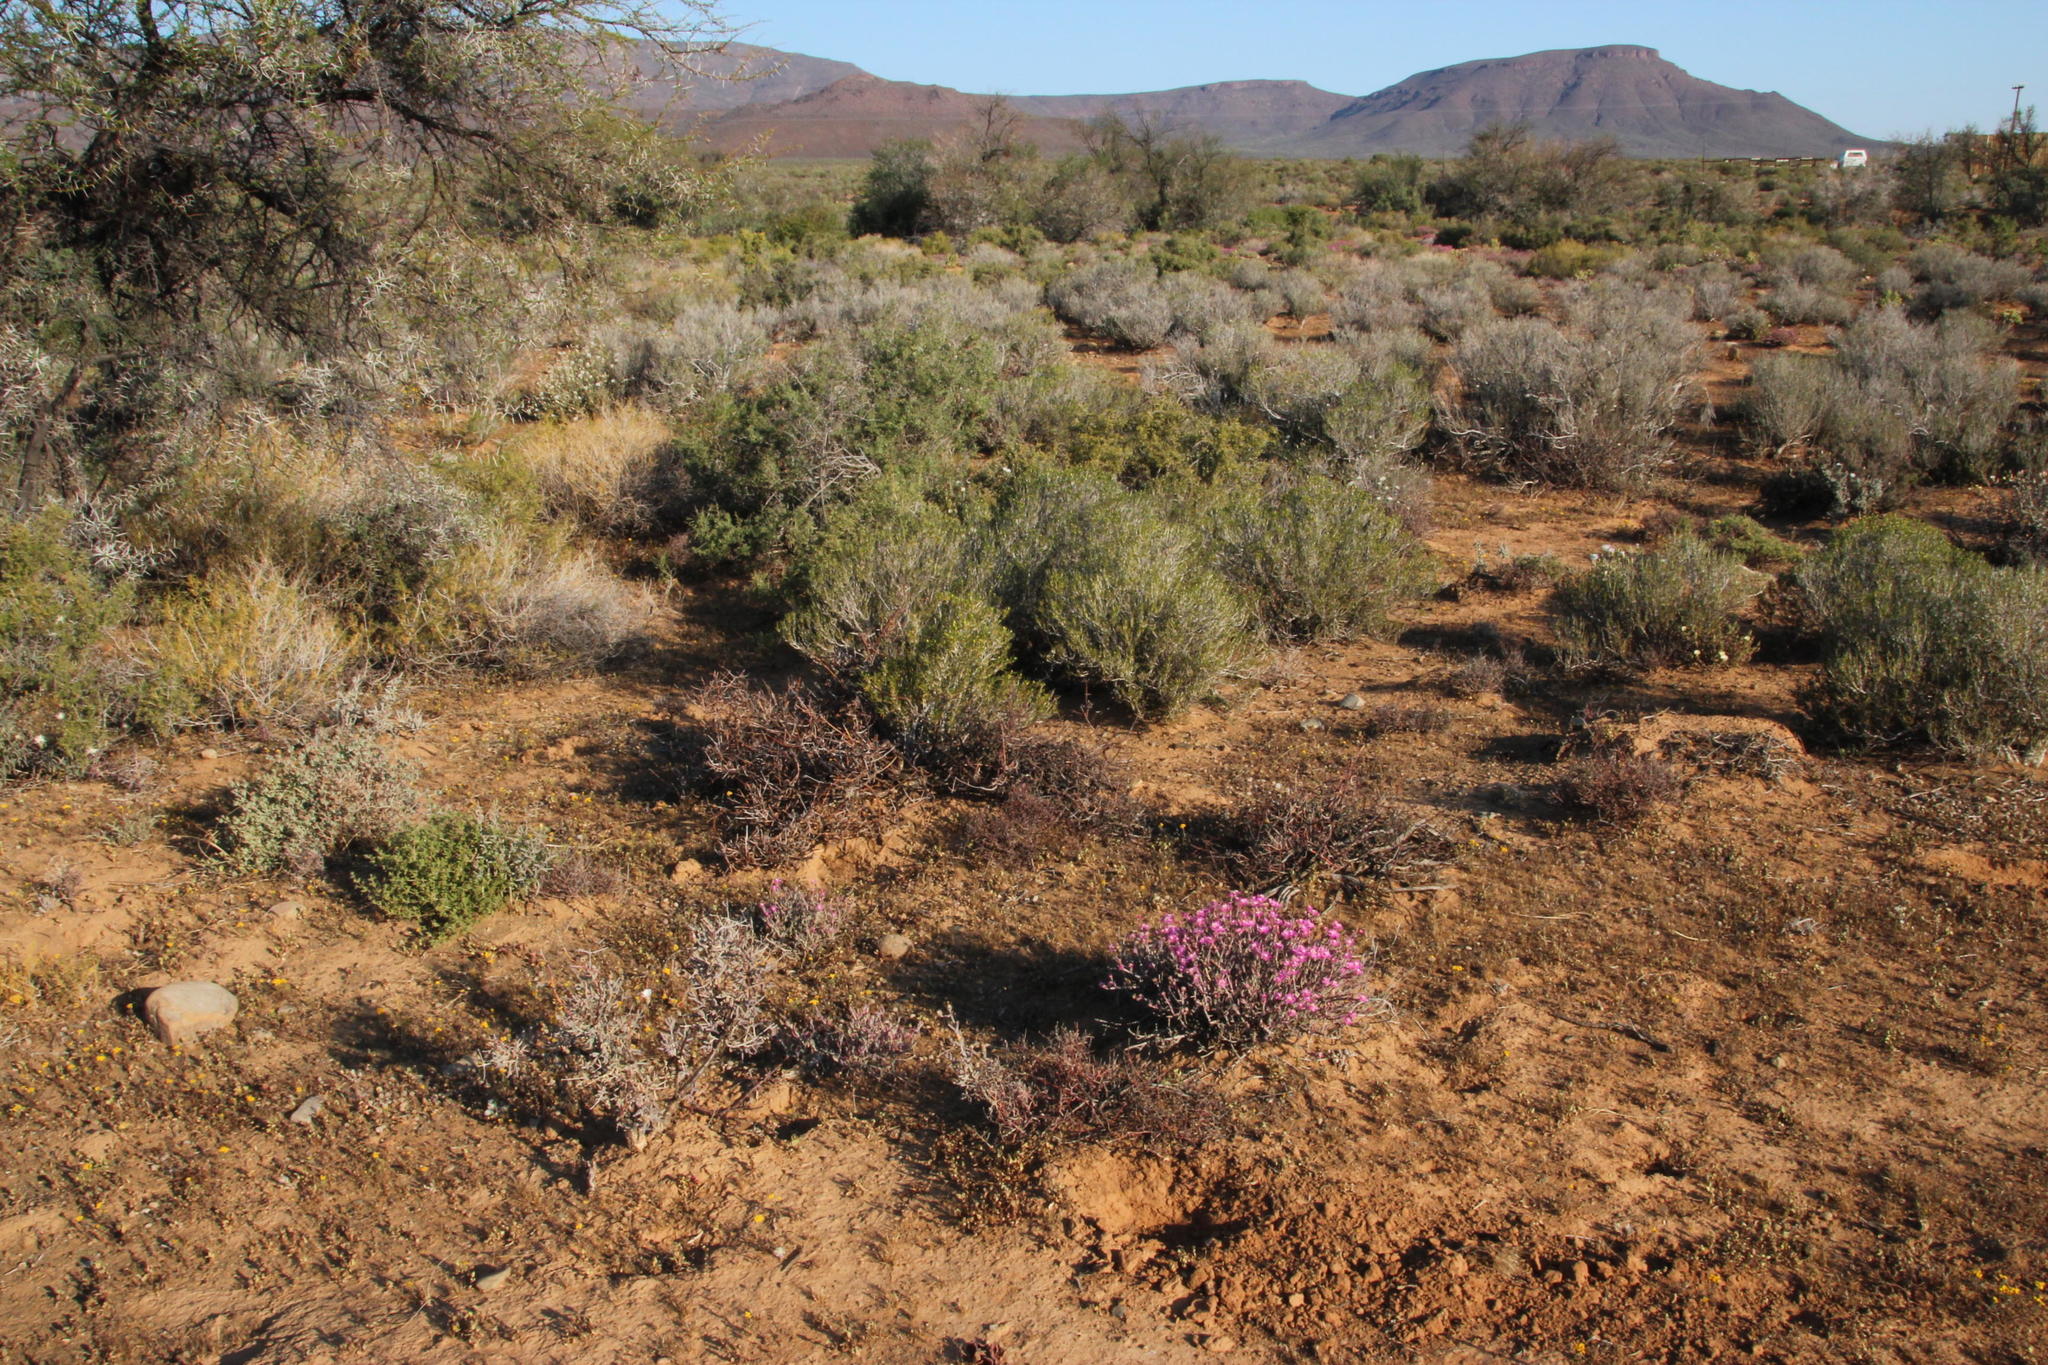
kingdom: Plantae
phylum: Tracheophyta
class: Magnoliopsida
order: Caryophyllales
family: Aizoaceae
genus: Mesembryanthemum
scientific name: Mesembryanthemum junceum
